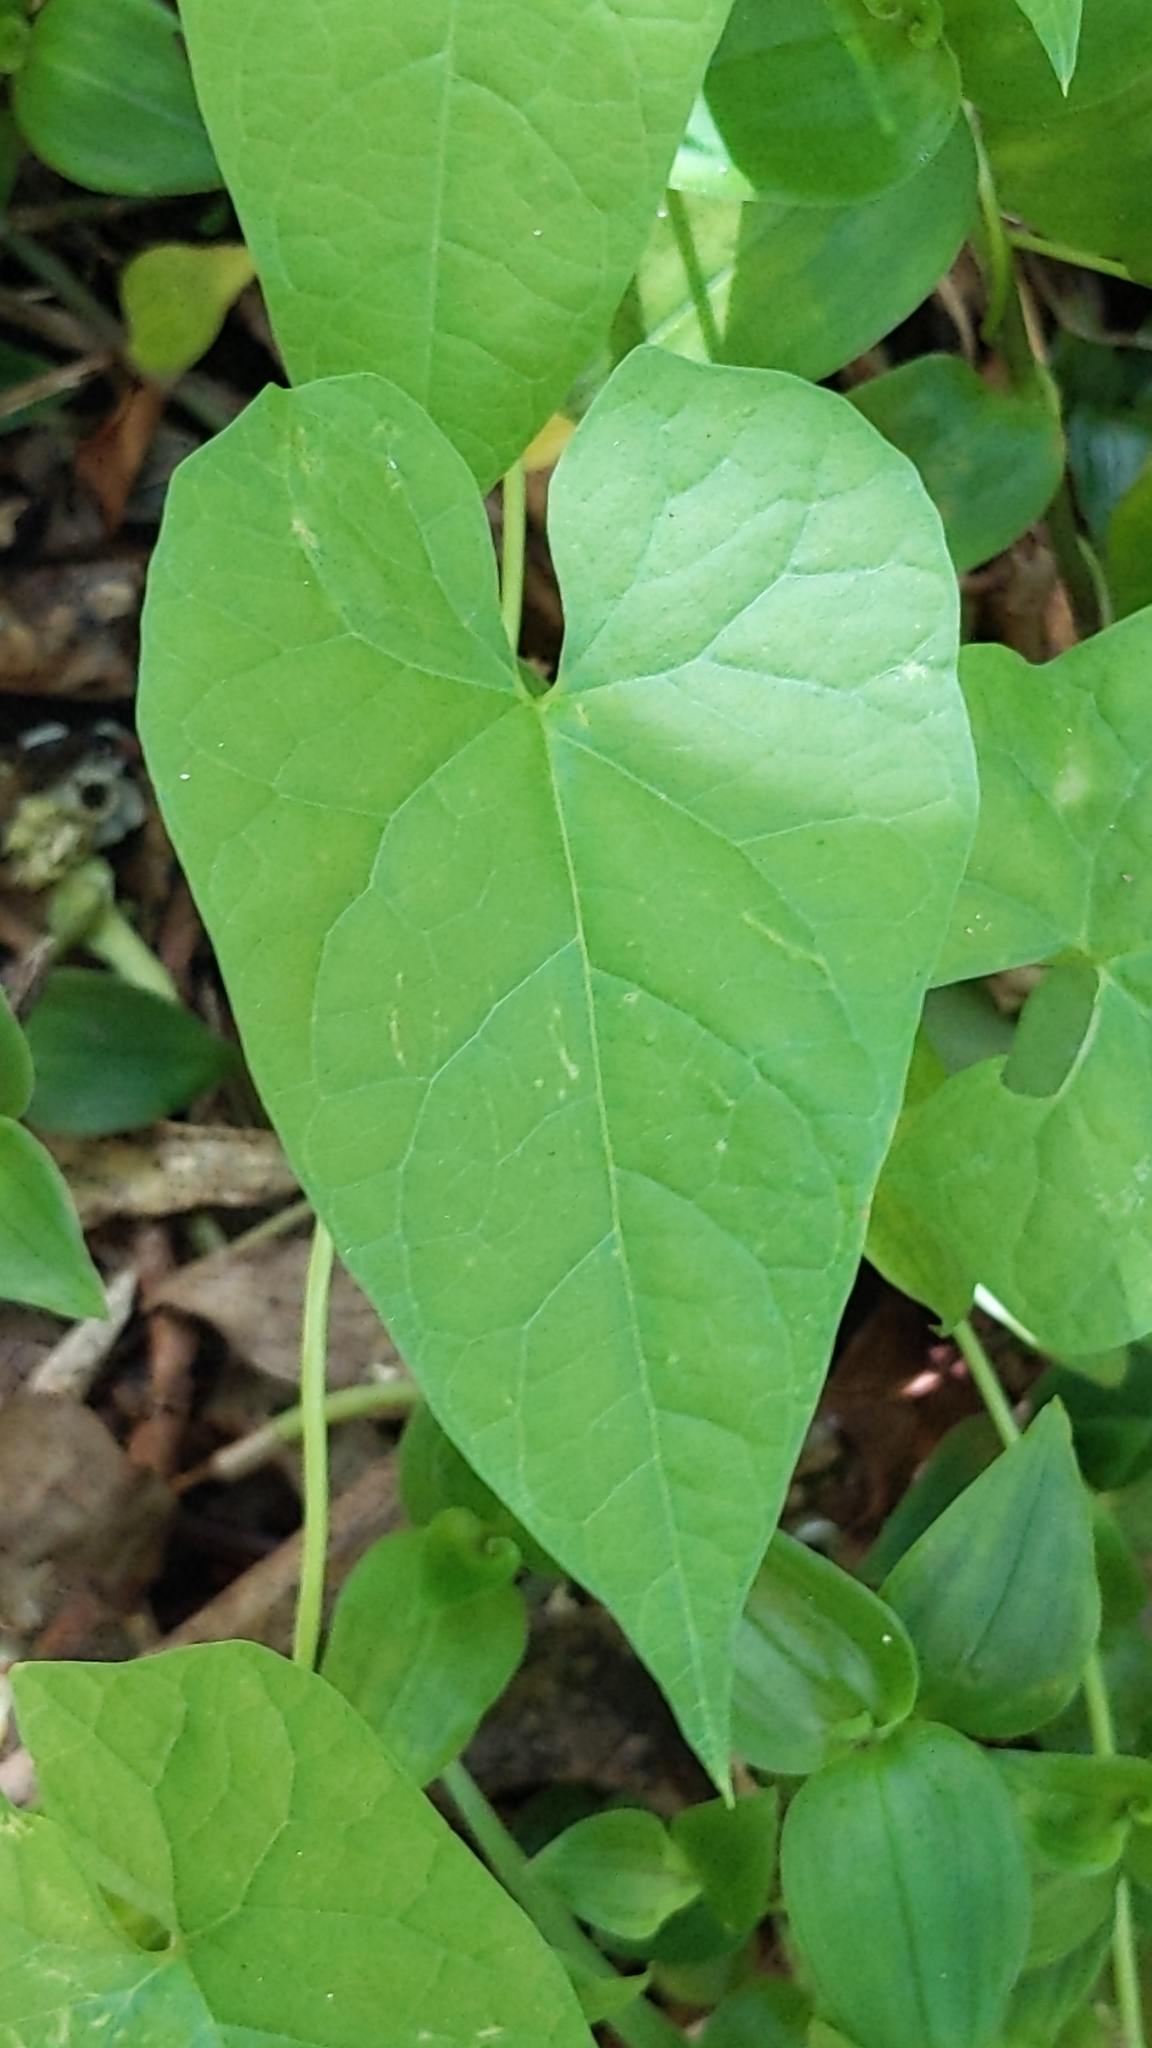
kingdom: Plantae
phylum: Tracheophyta
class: Magnoliopsida
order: Solanales
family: Convolvulaceae
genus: Calystegia
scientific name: Calystegia silvatica
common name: Large bindweed
